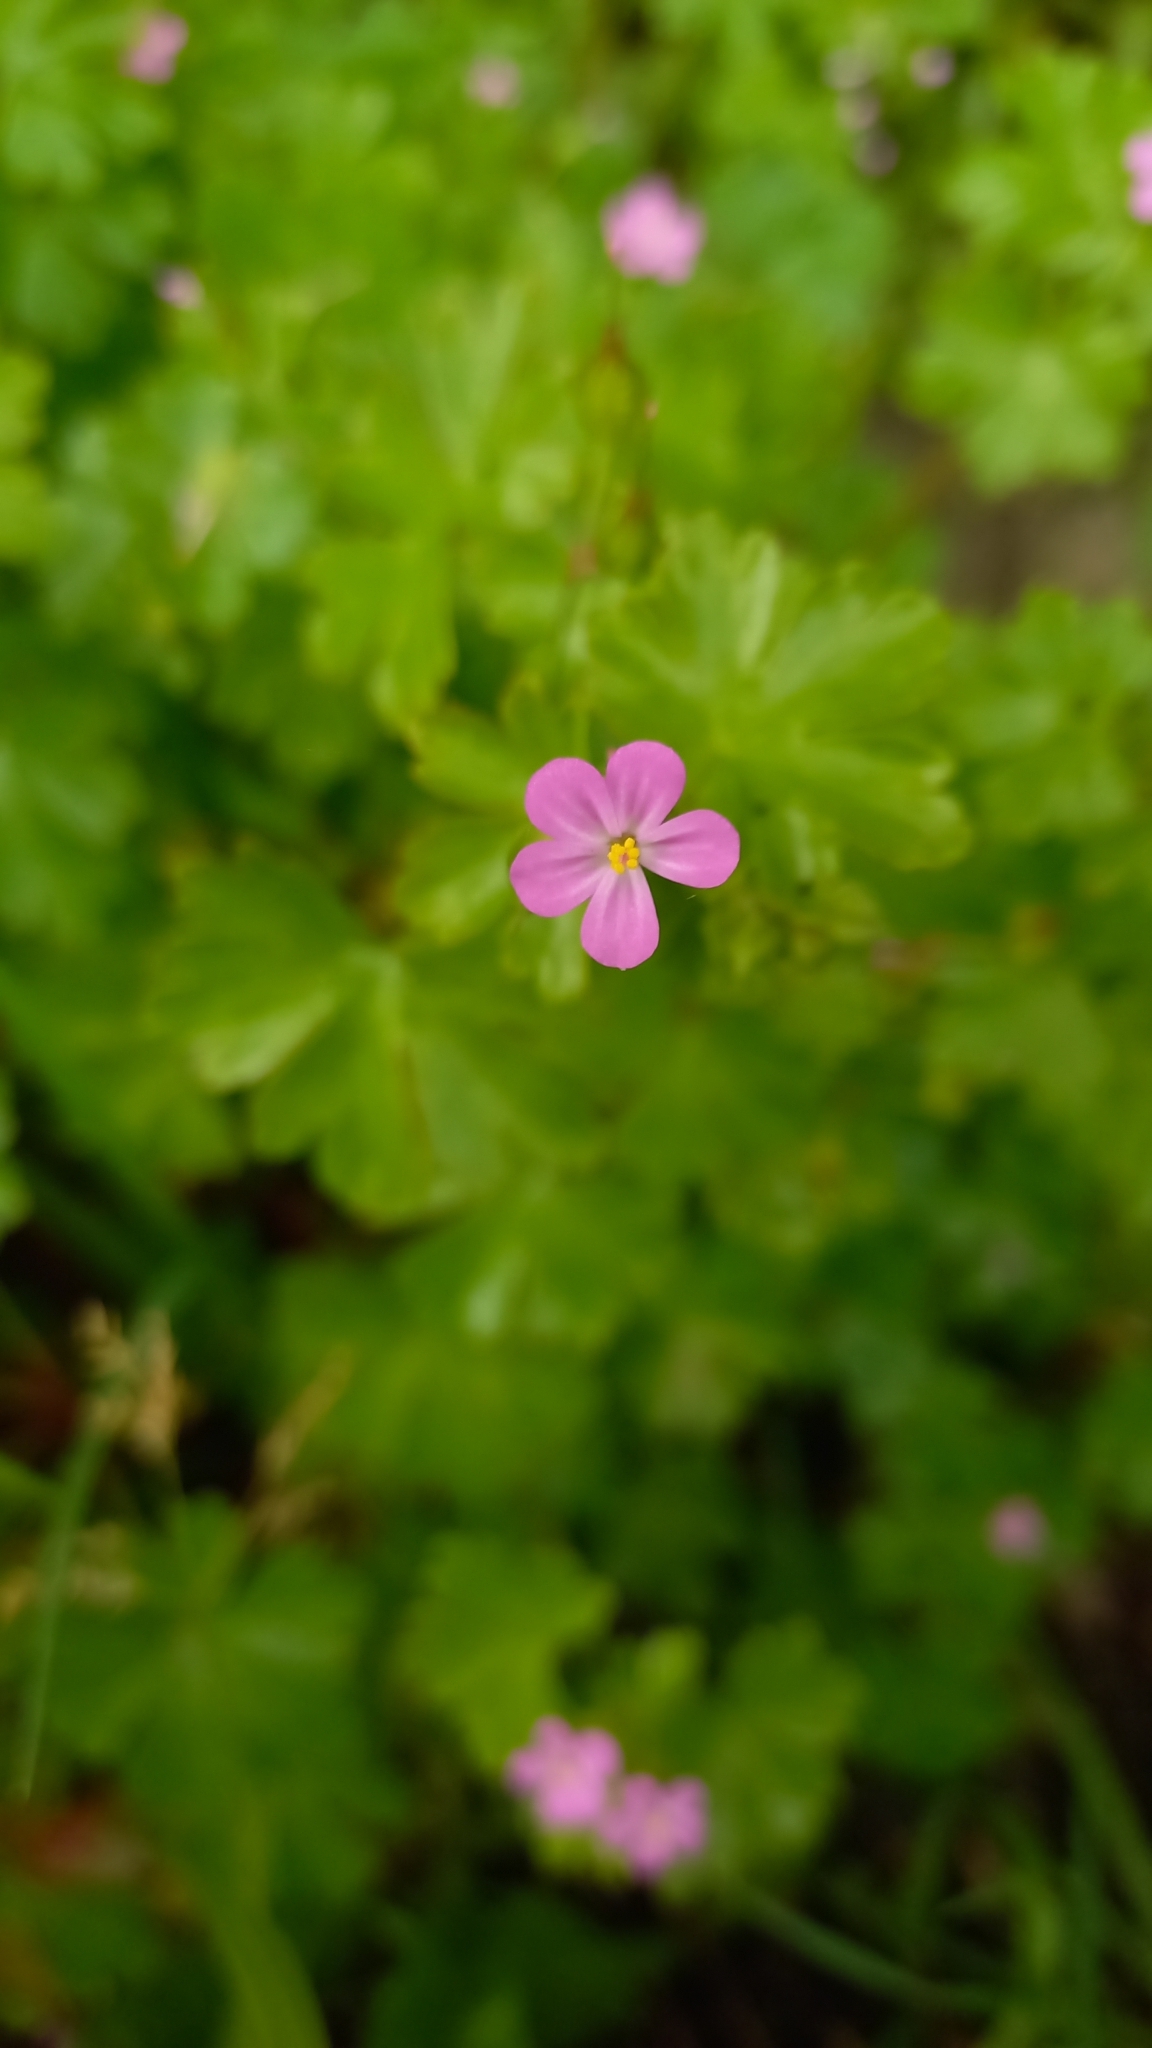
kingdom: Plantae
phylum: Tracheophyta
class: Magnoliopsida
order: Geraniales
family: Geraniaceae
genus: Geranium
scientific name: Geranium lucidum
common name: Shining crane's-bill
